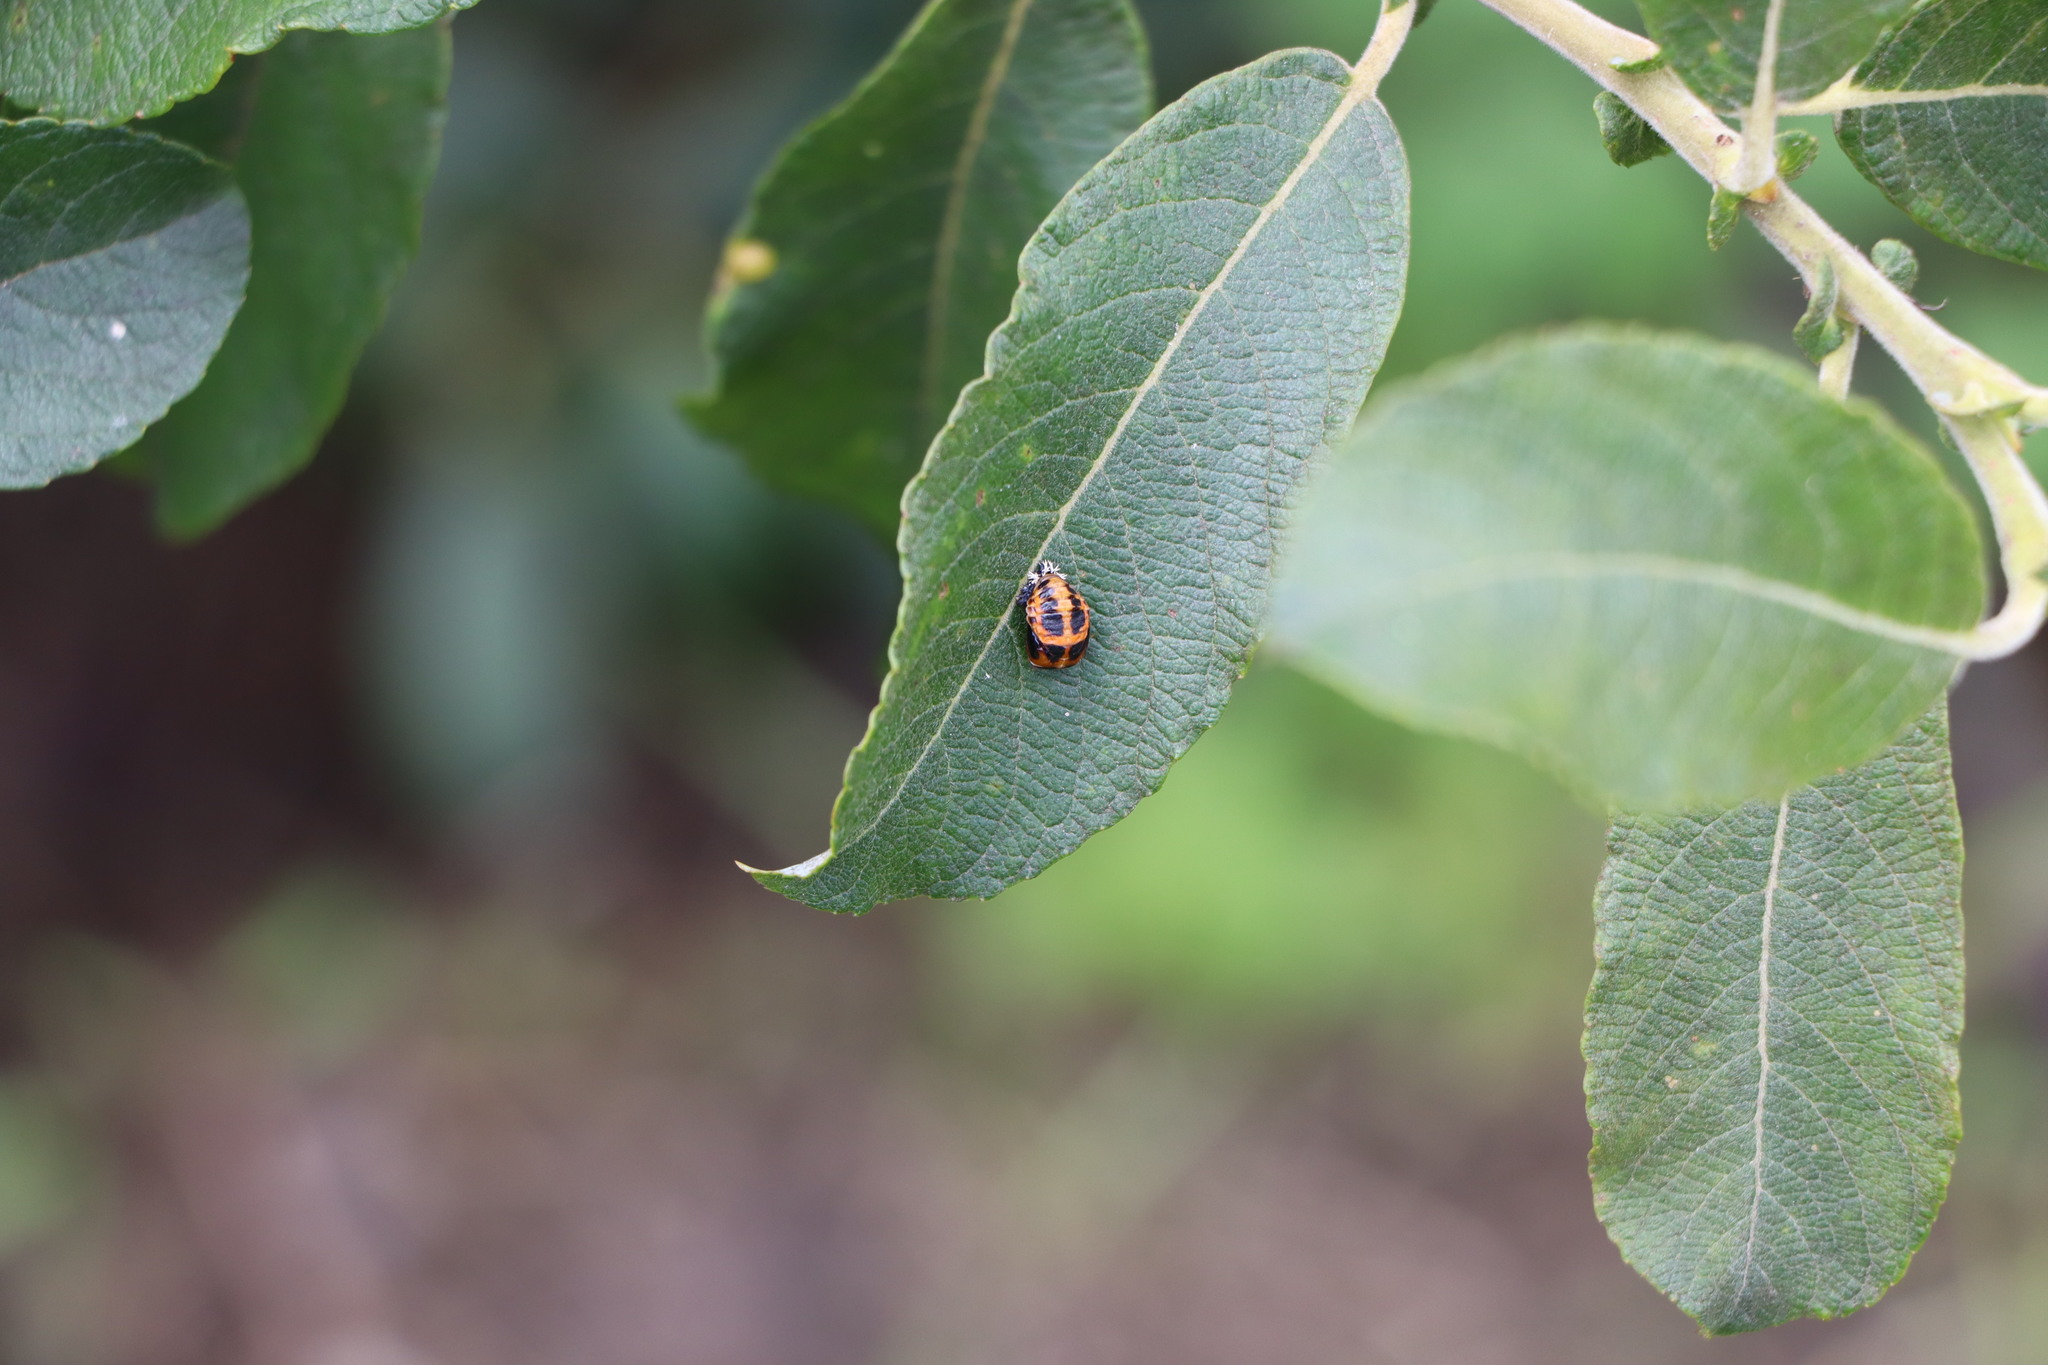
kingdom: Animalia
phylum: Arthropoda
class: Insecta
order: Coleoptera
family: Coccinellidae
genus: Harmonia
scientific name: Harmonia axyridis
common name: Harlequin ladybird
